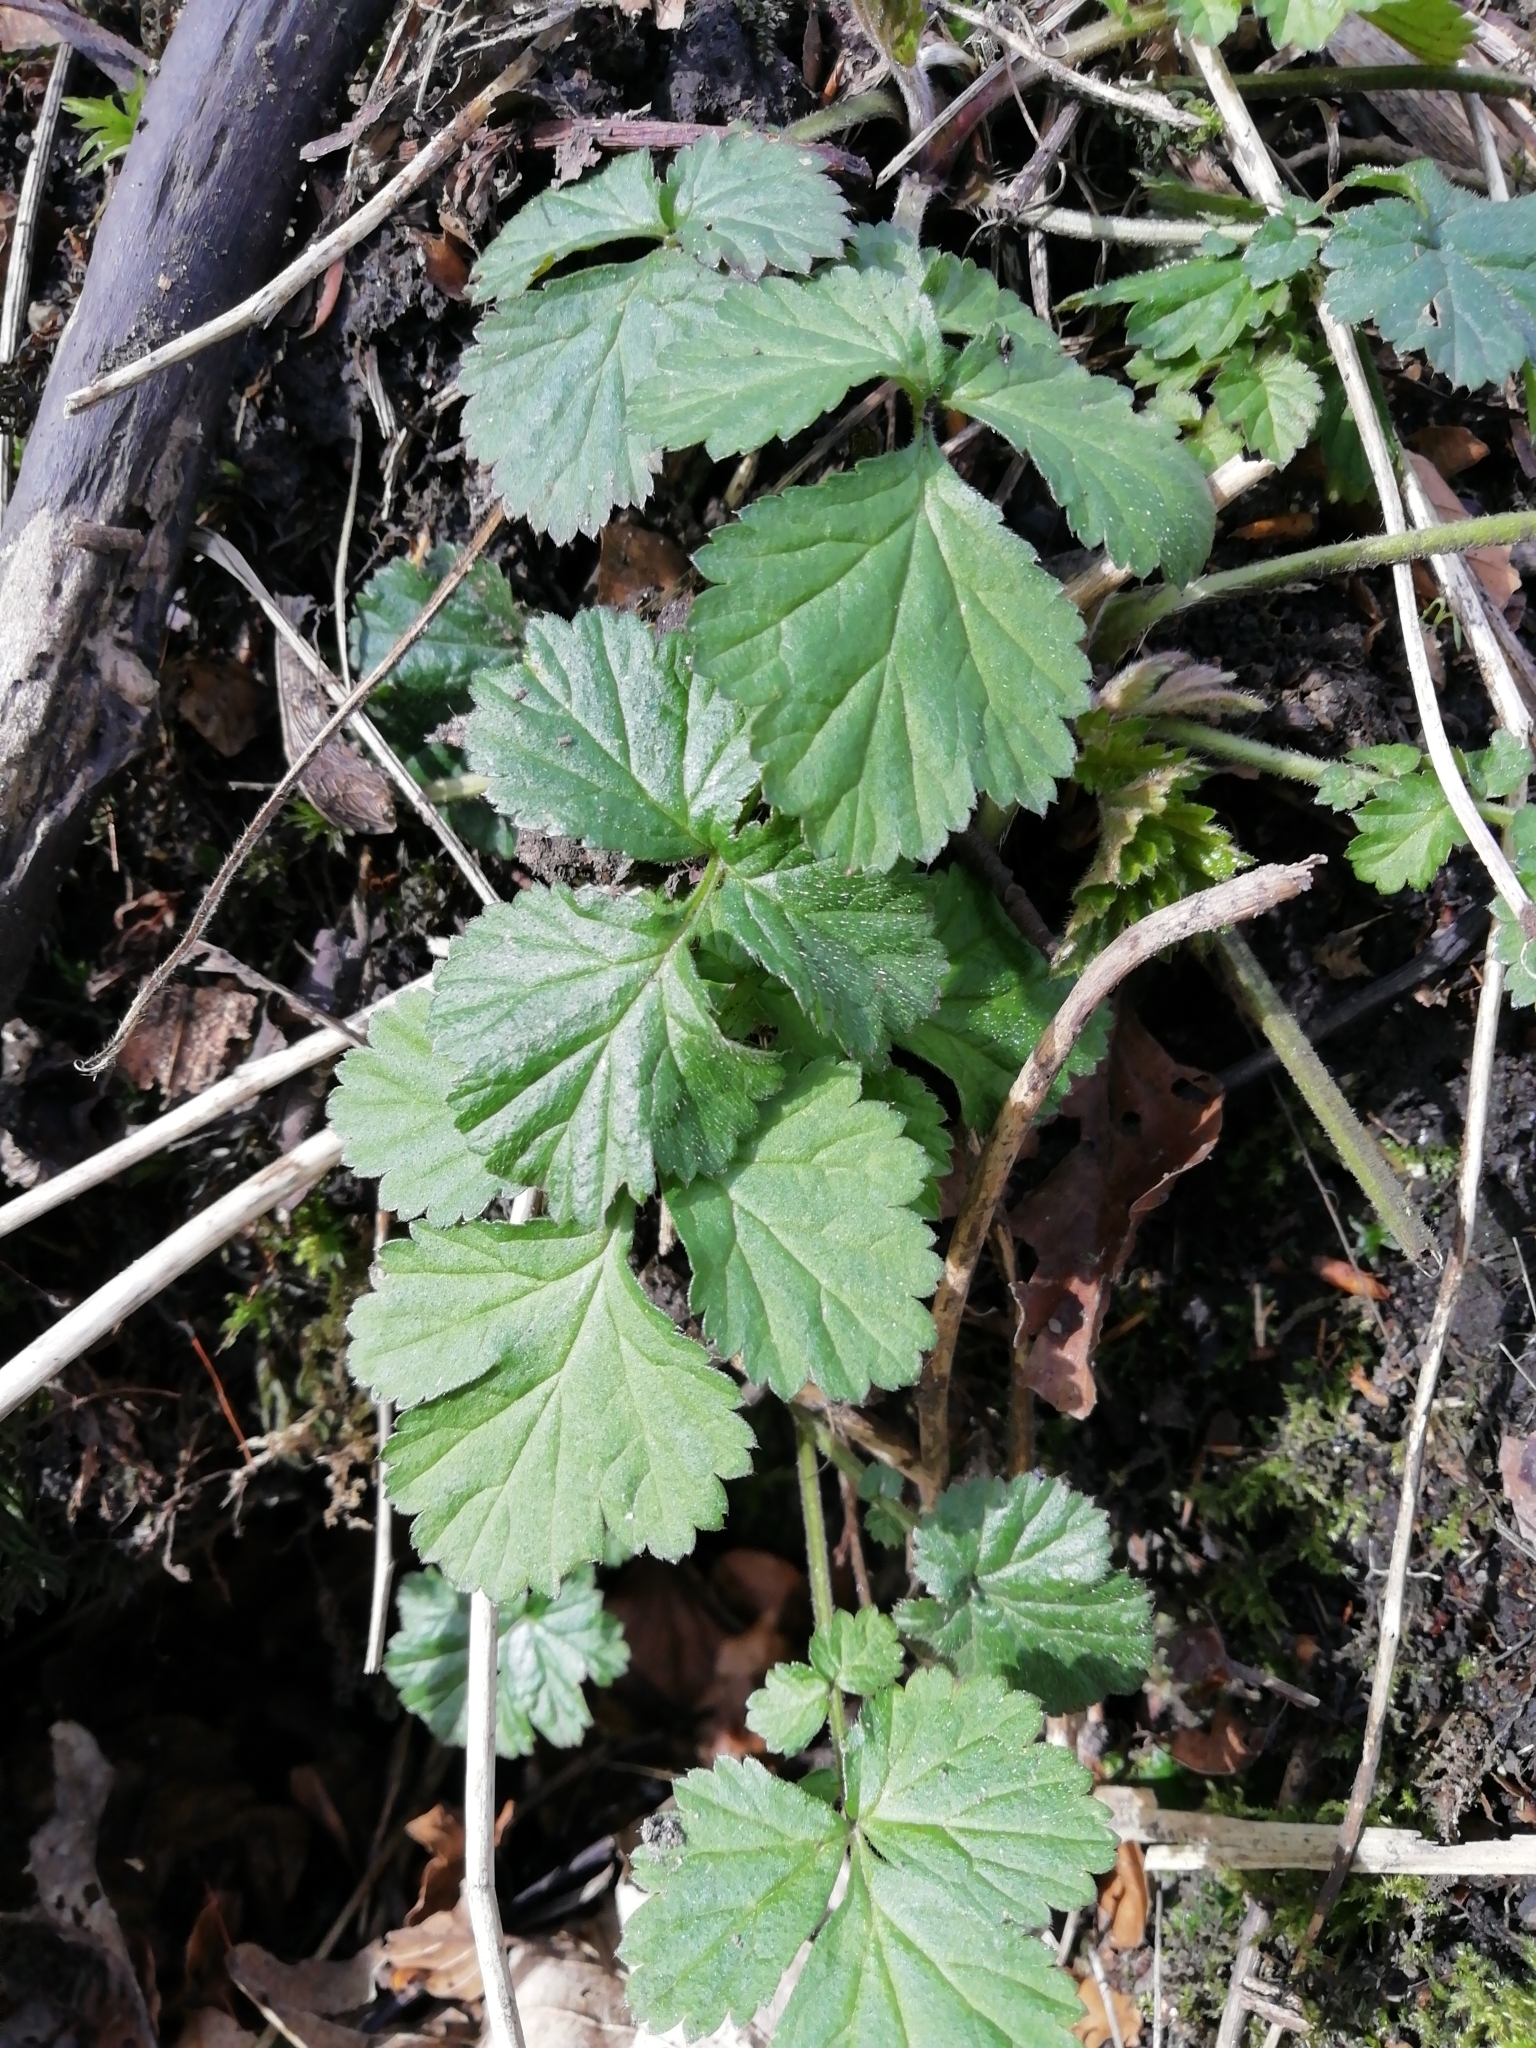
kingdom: Plantae
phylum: Tracheophyta
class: Magnoliopsida
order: Rosales
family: Rosaceae
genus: Geum
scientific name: Geum urbanum
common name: Wood avens
